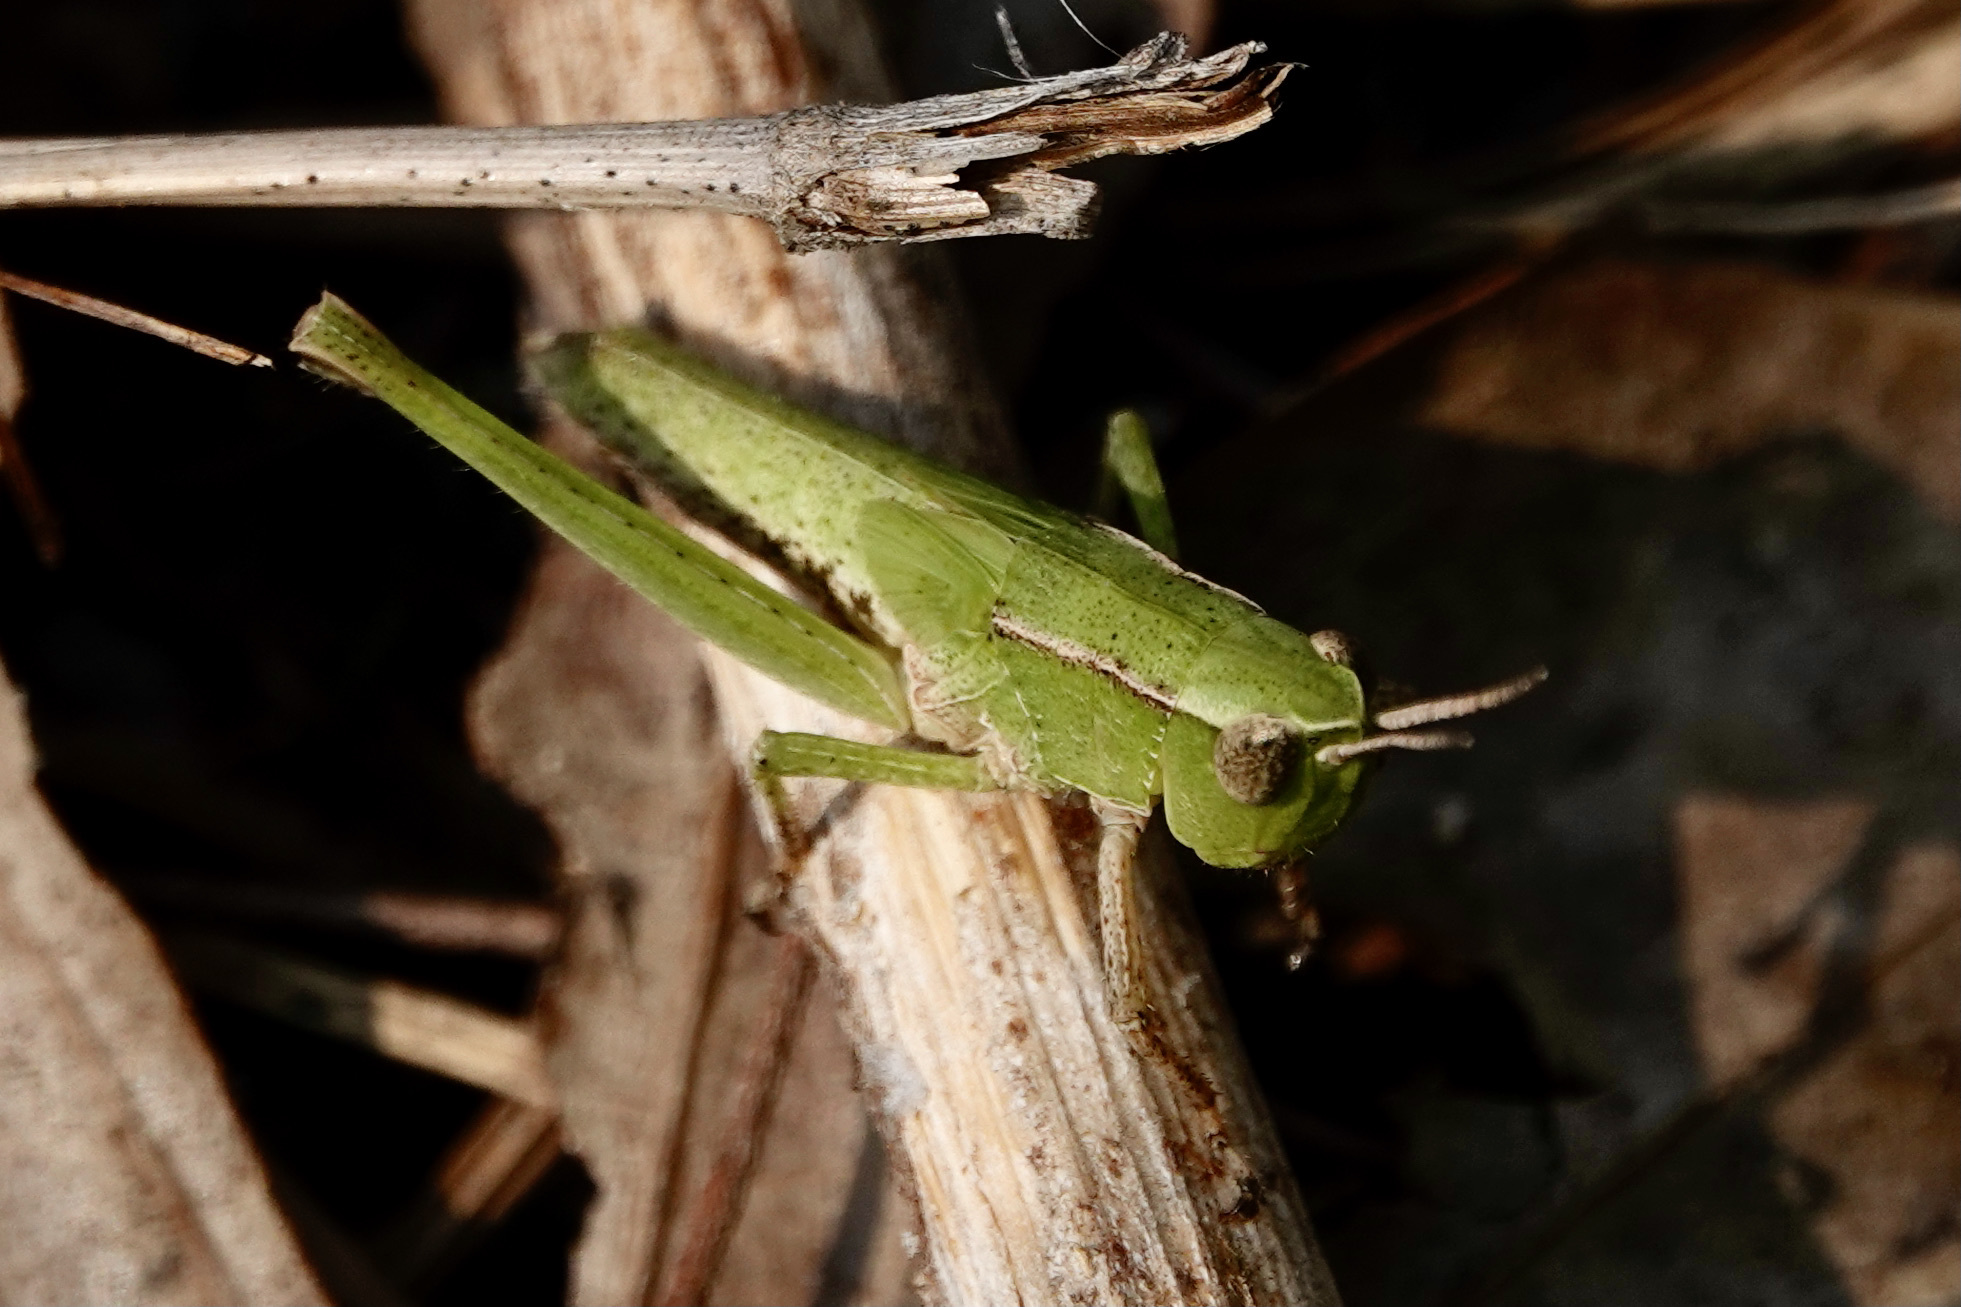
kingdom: Animalia
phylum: Arthropoda
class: Insecta
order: Orthoptera
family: Acrididae
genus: Dichromorpha
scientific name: Dichromorpha viridis
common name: Short-winged green grasshopper
